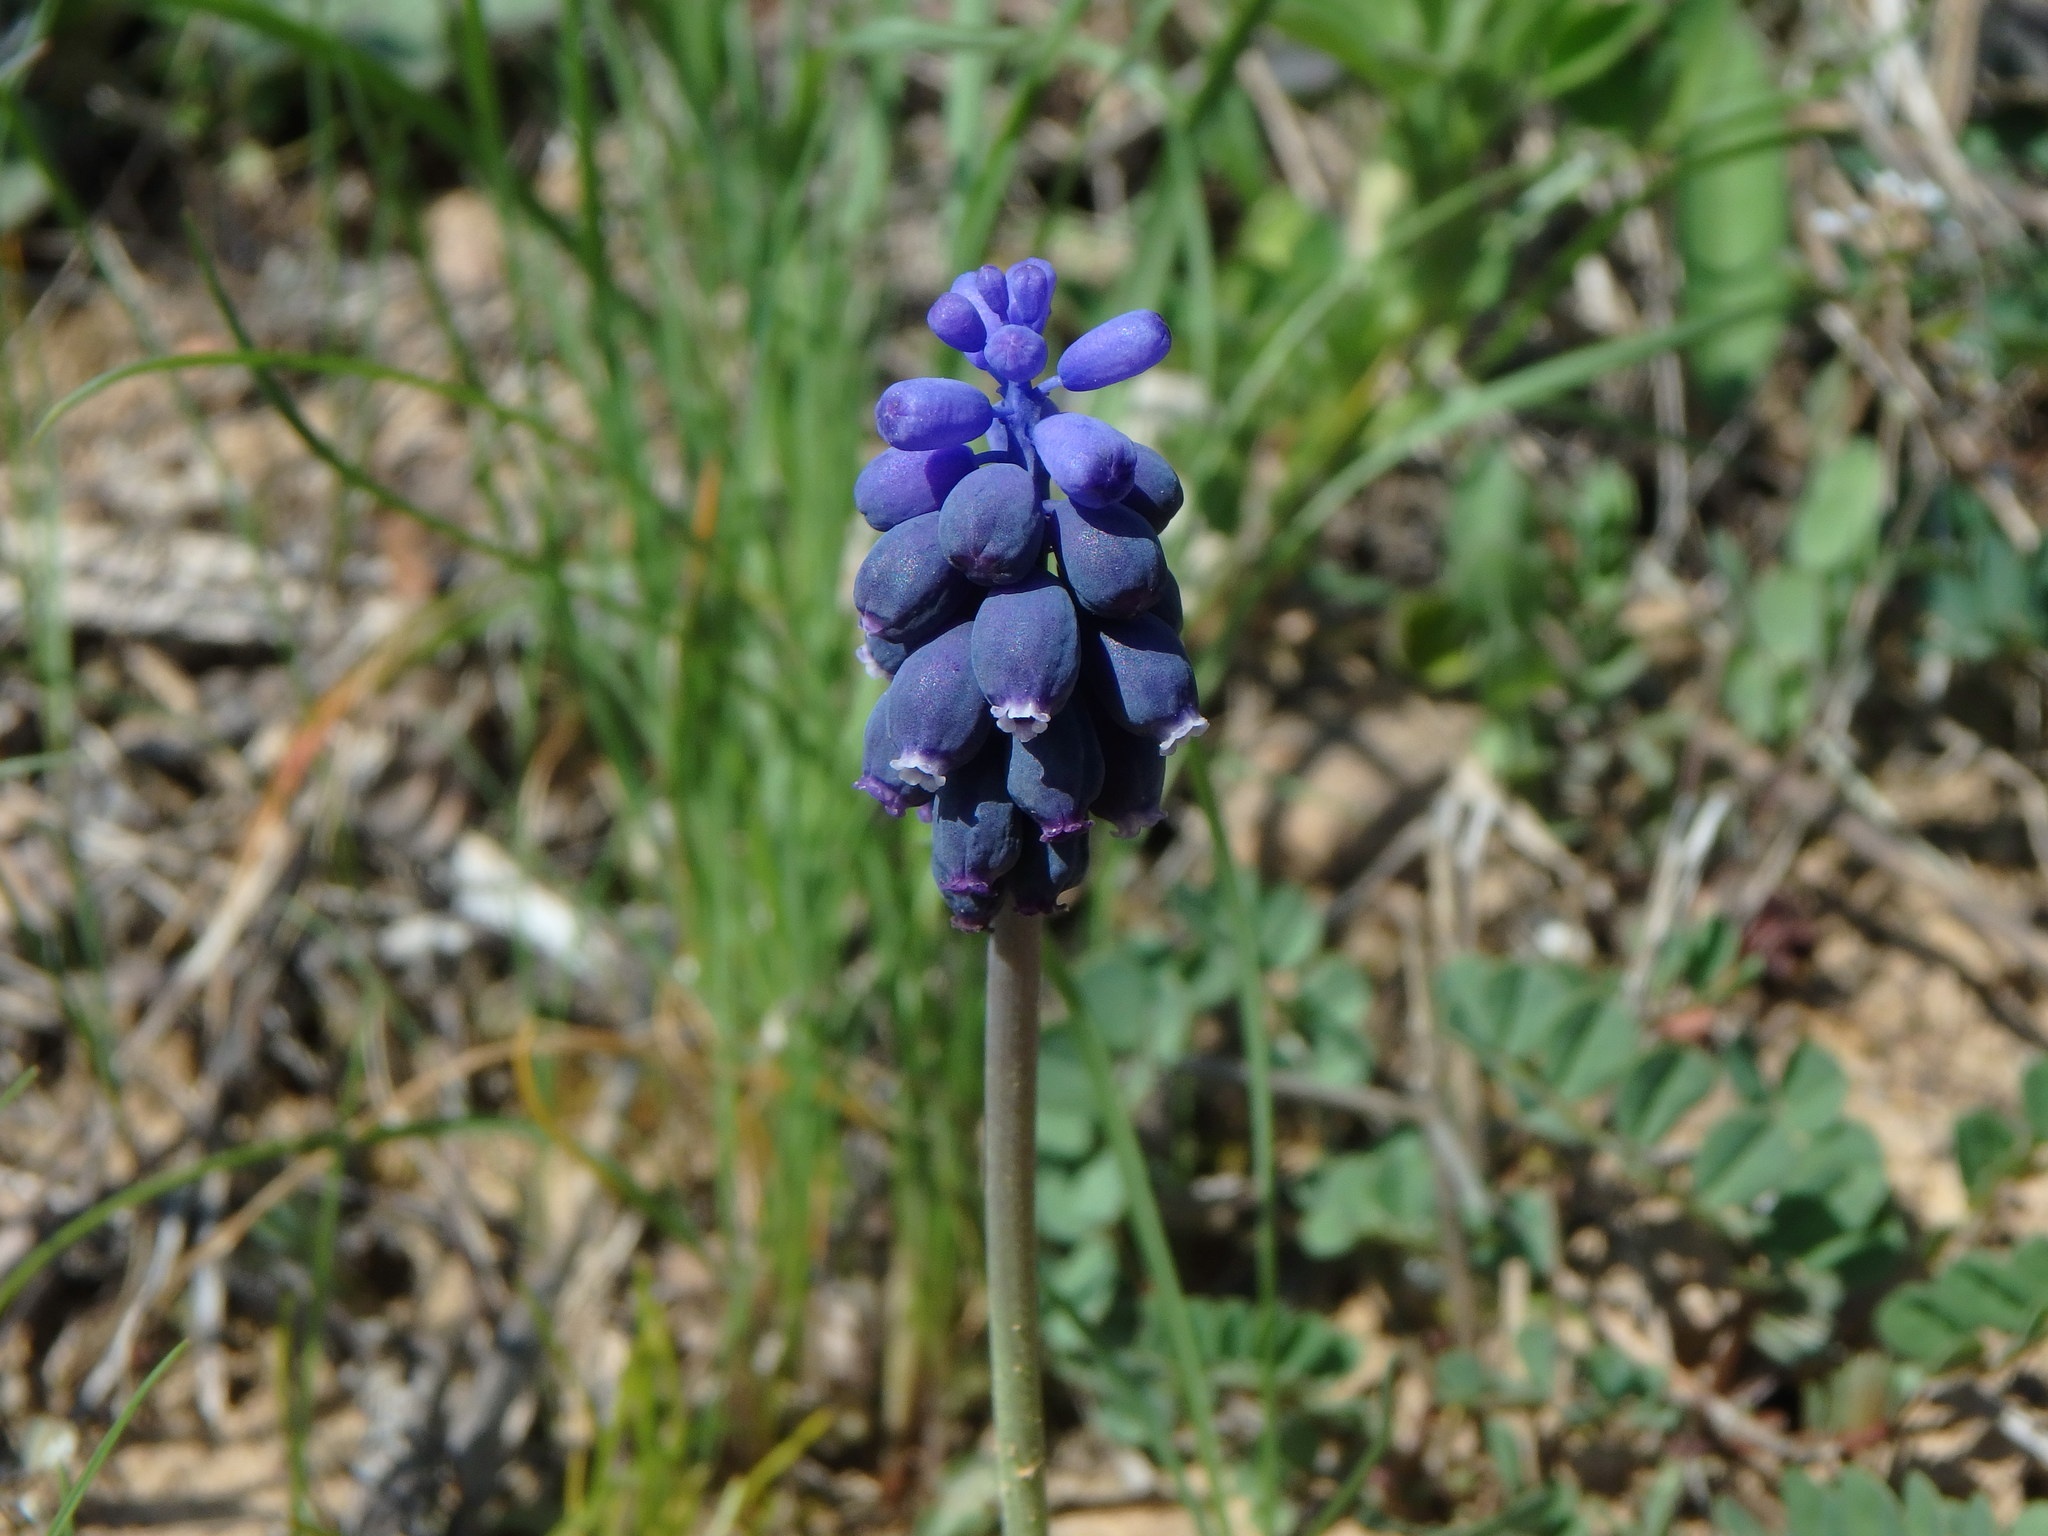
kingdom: Plantae
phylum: Tracheophyta
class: Liliopsida
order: Asparagales
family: Asparagaceae
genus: Muscari
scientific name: Muscari neglectum
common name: Grape-hyacinth
